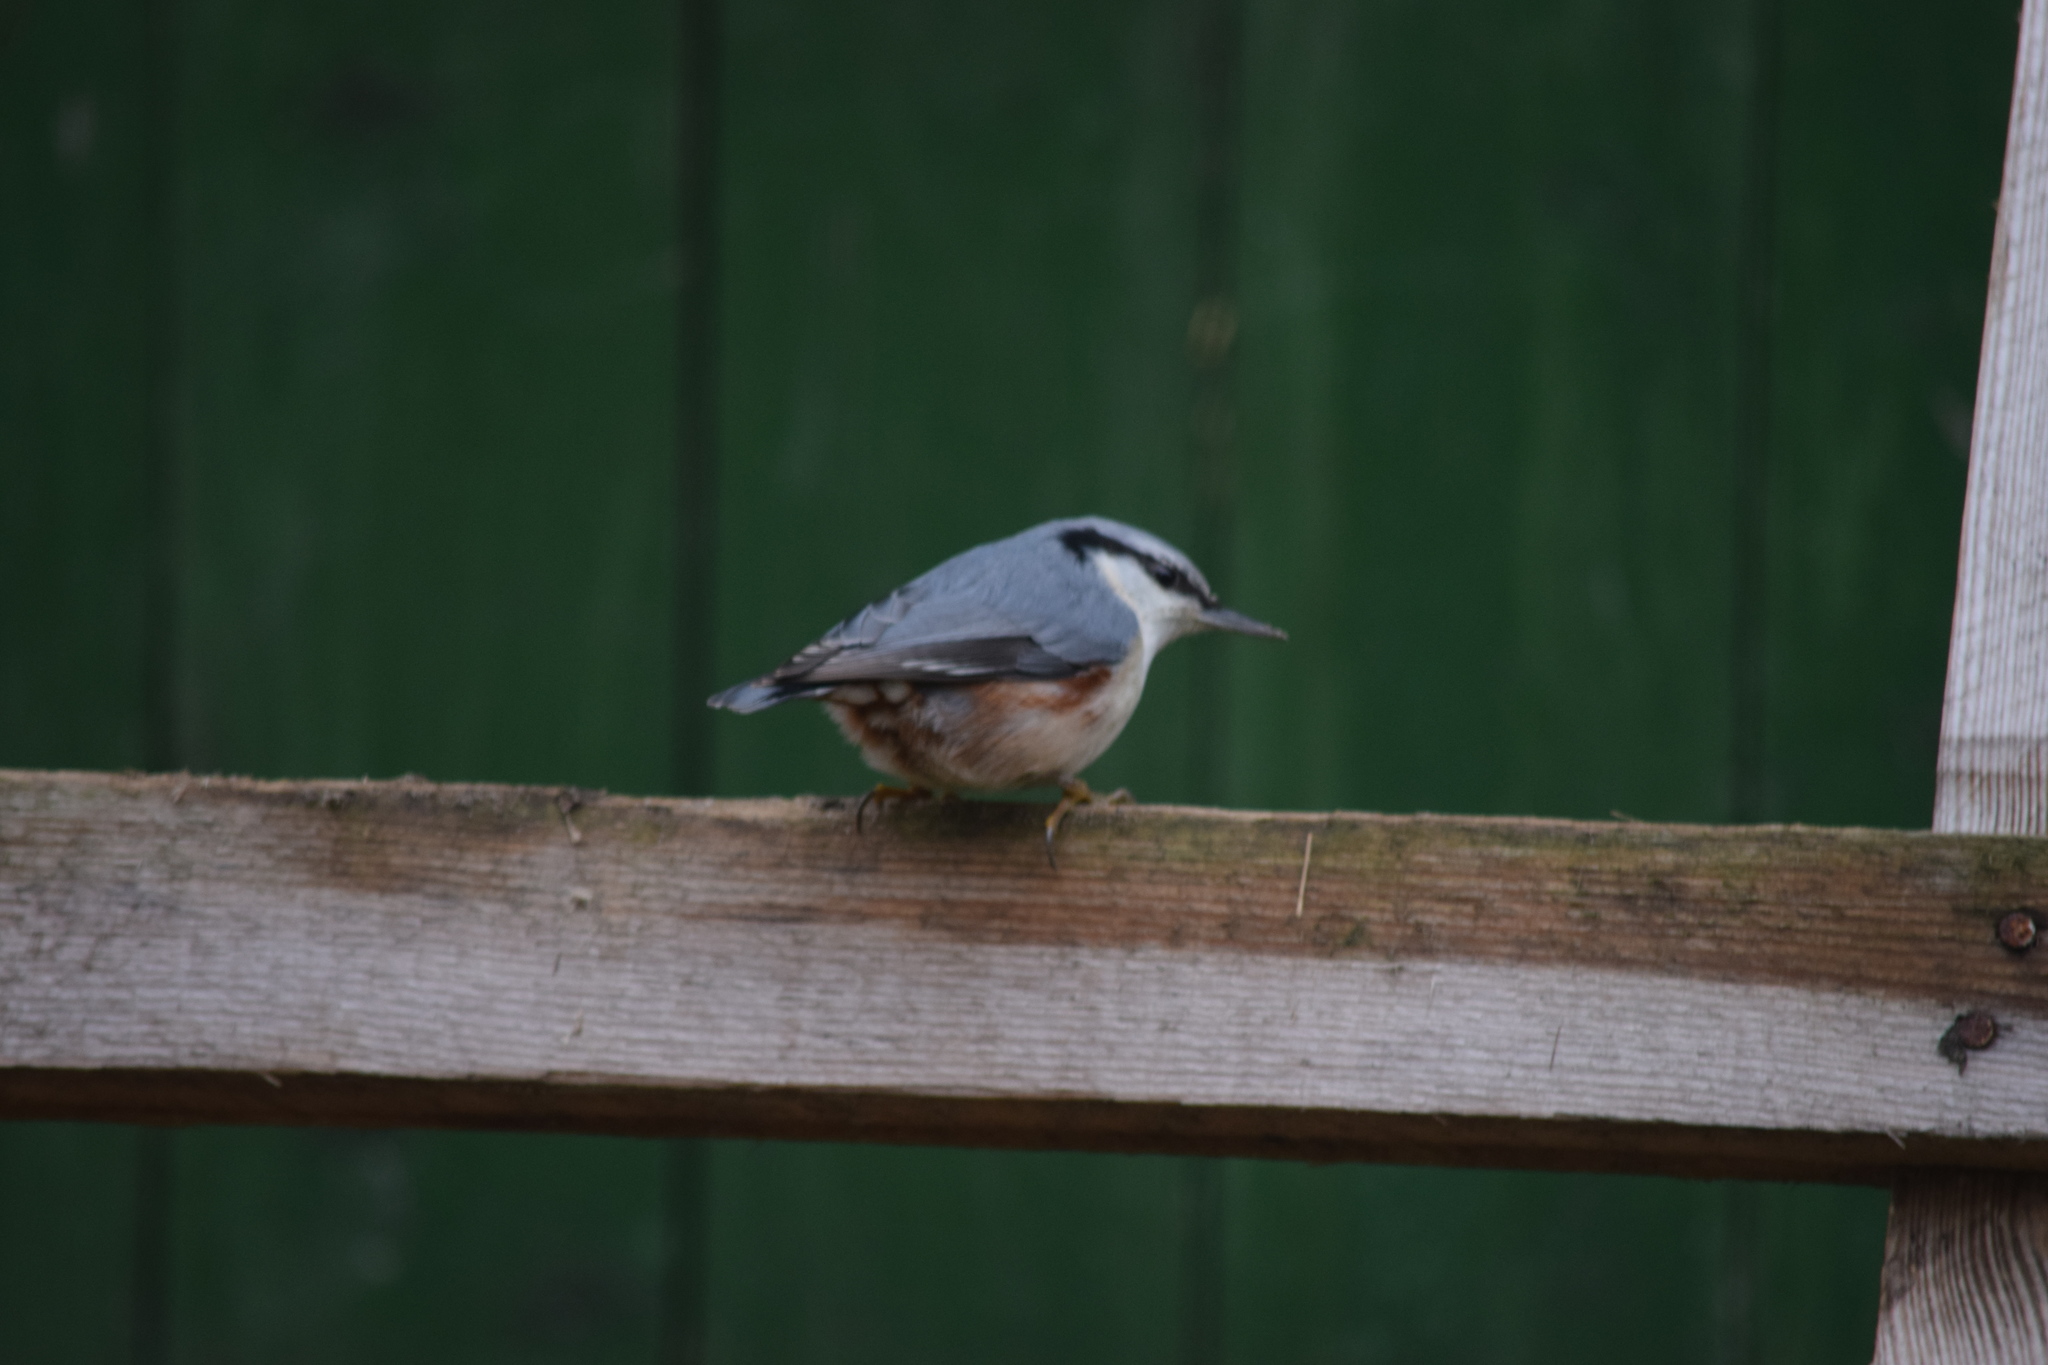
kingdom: Animalia
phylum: Chordata
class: Aves
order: Passeriformes
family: Sittidae
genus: Sitta
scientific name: Sitta europaea
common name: Eurasian nuthatch
